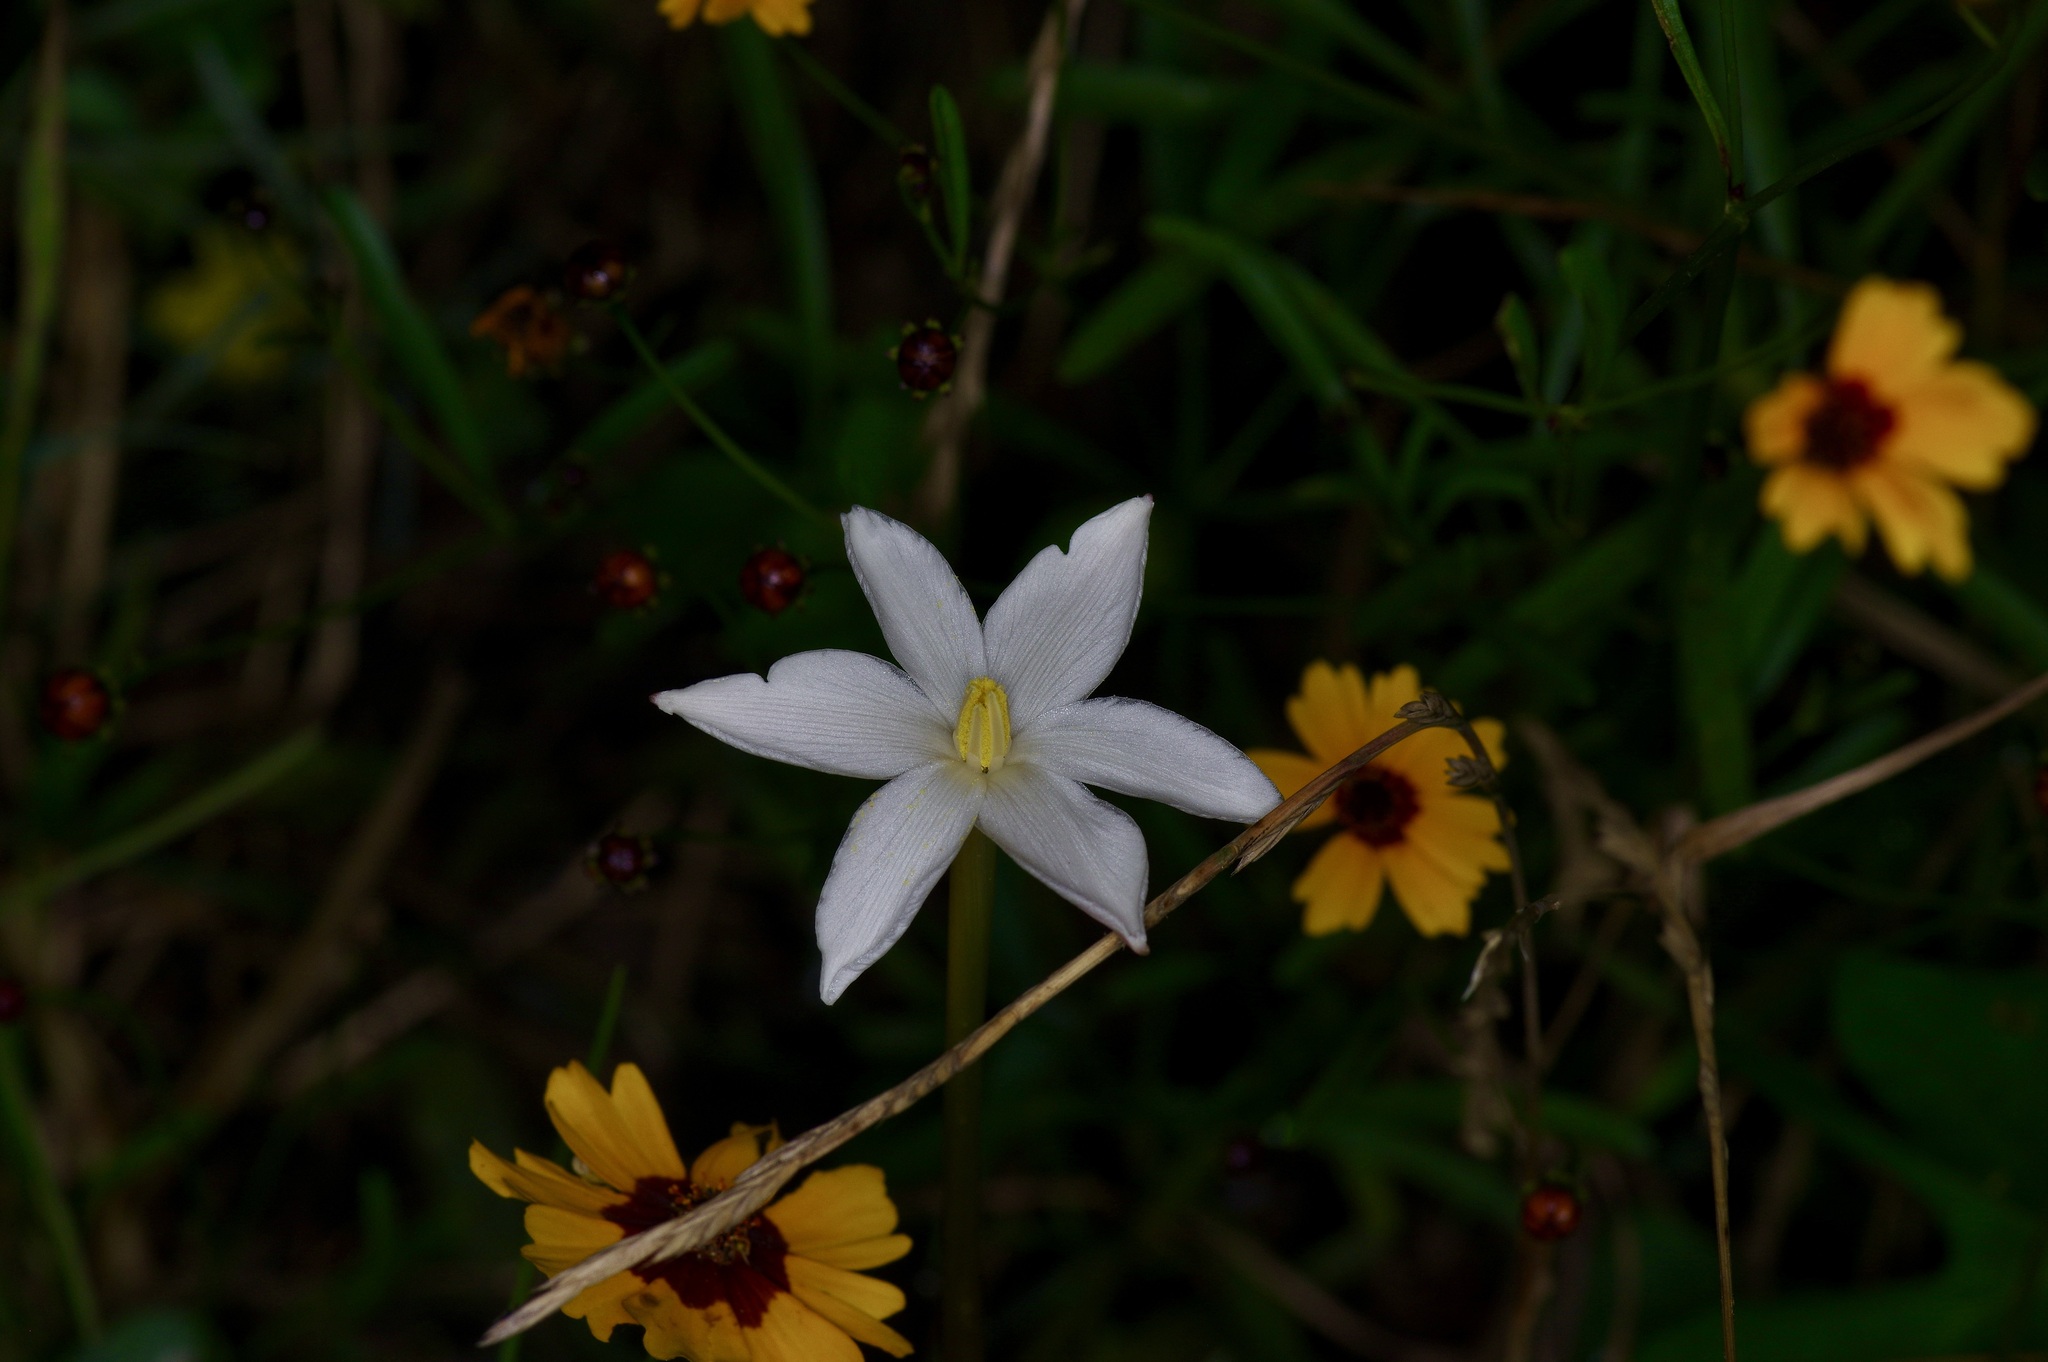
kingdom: Plantae
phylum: Tracheophyta
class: Liliopsida
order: Asparagales
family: Amaryllidaceae
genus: Zephyranthes
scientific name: Zephyranthes chlorosolen
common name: Evening rain-lily
